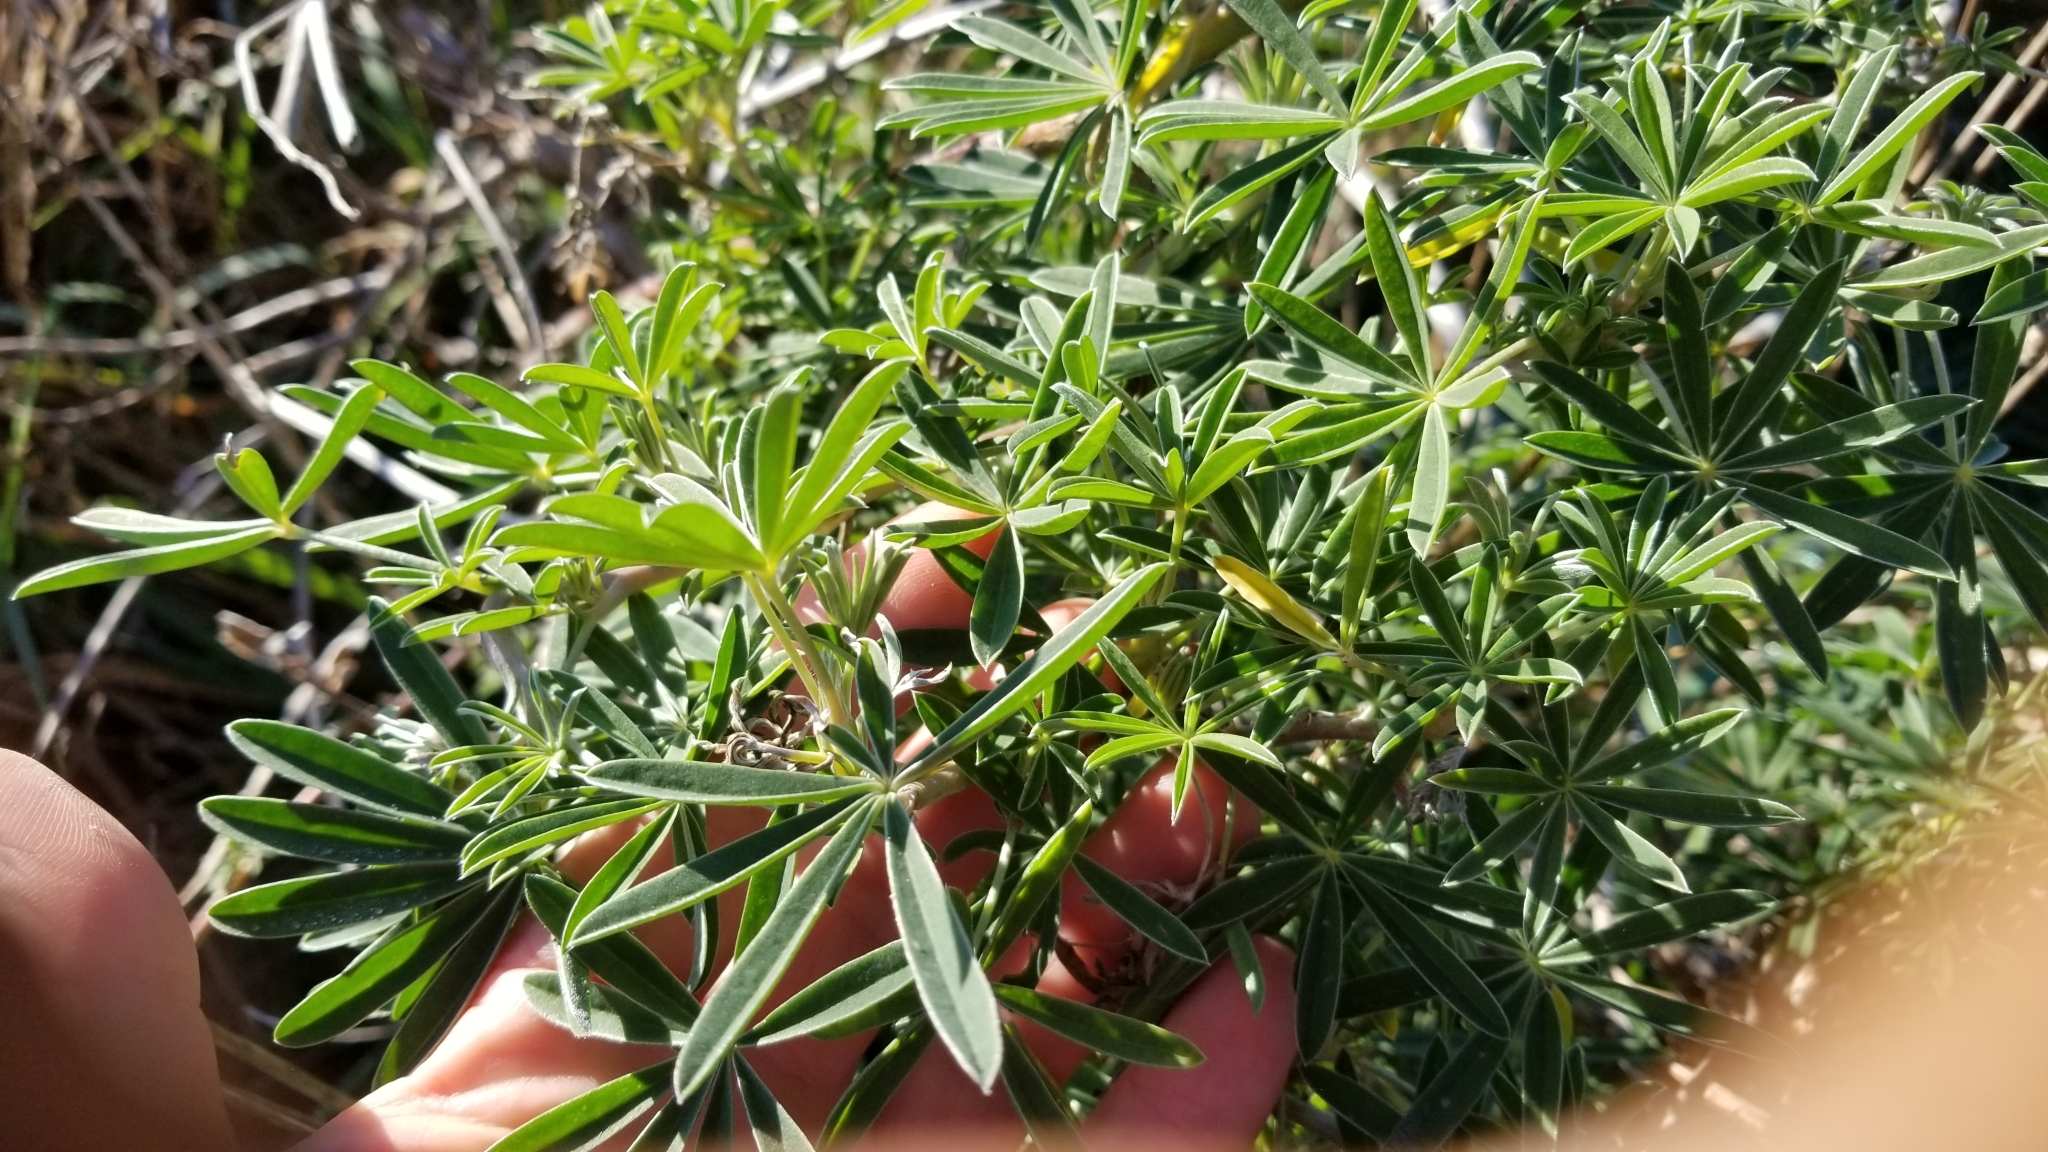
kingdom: Plantae
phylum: Tracheophyta
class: Magnoliopsida
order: Fabales
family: Fabaceae
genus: Lupinus
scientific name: Lupinus arboreus
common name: Yellow bush lupine
